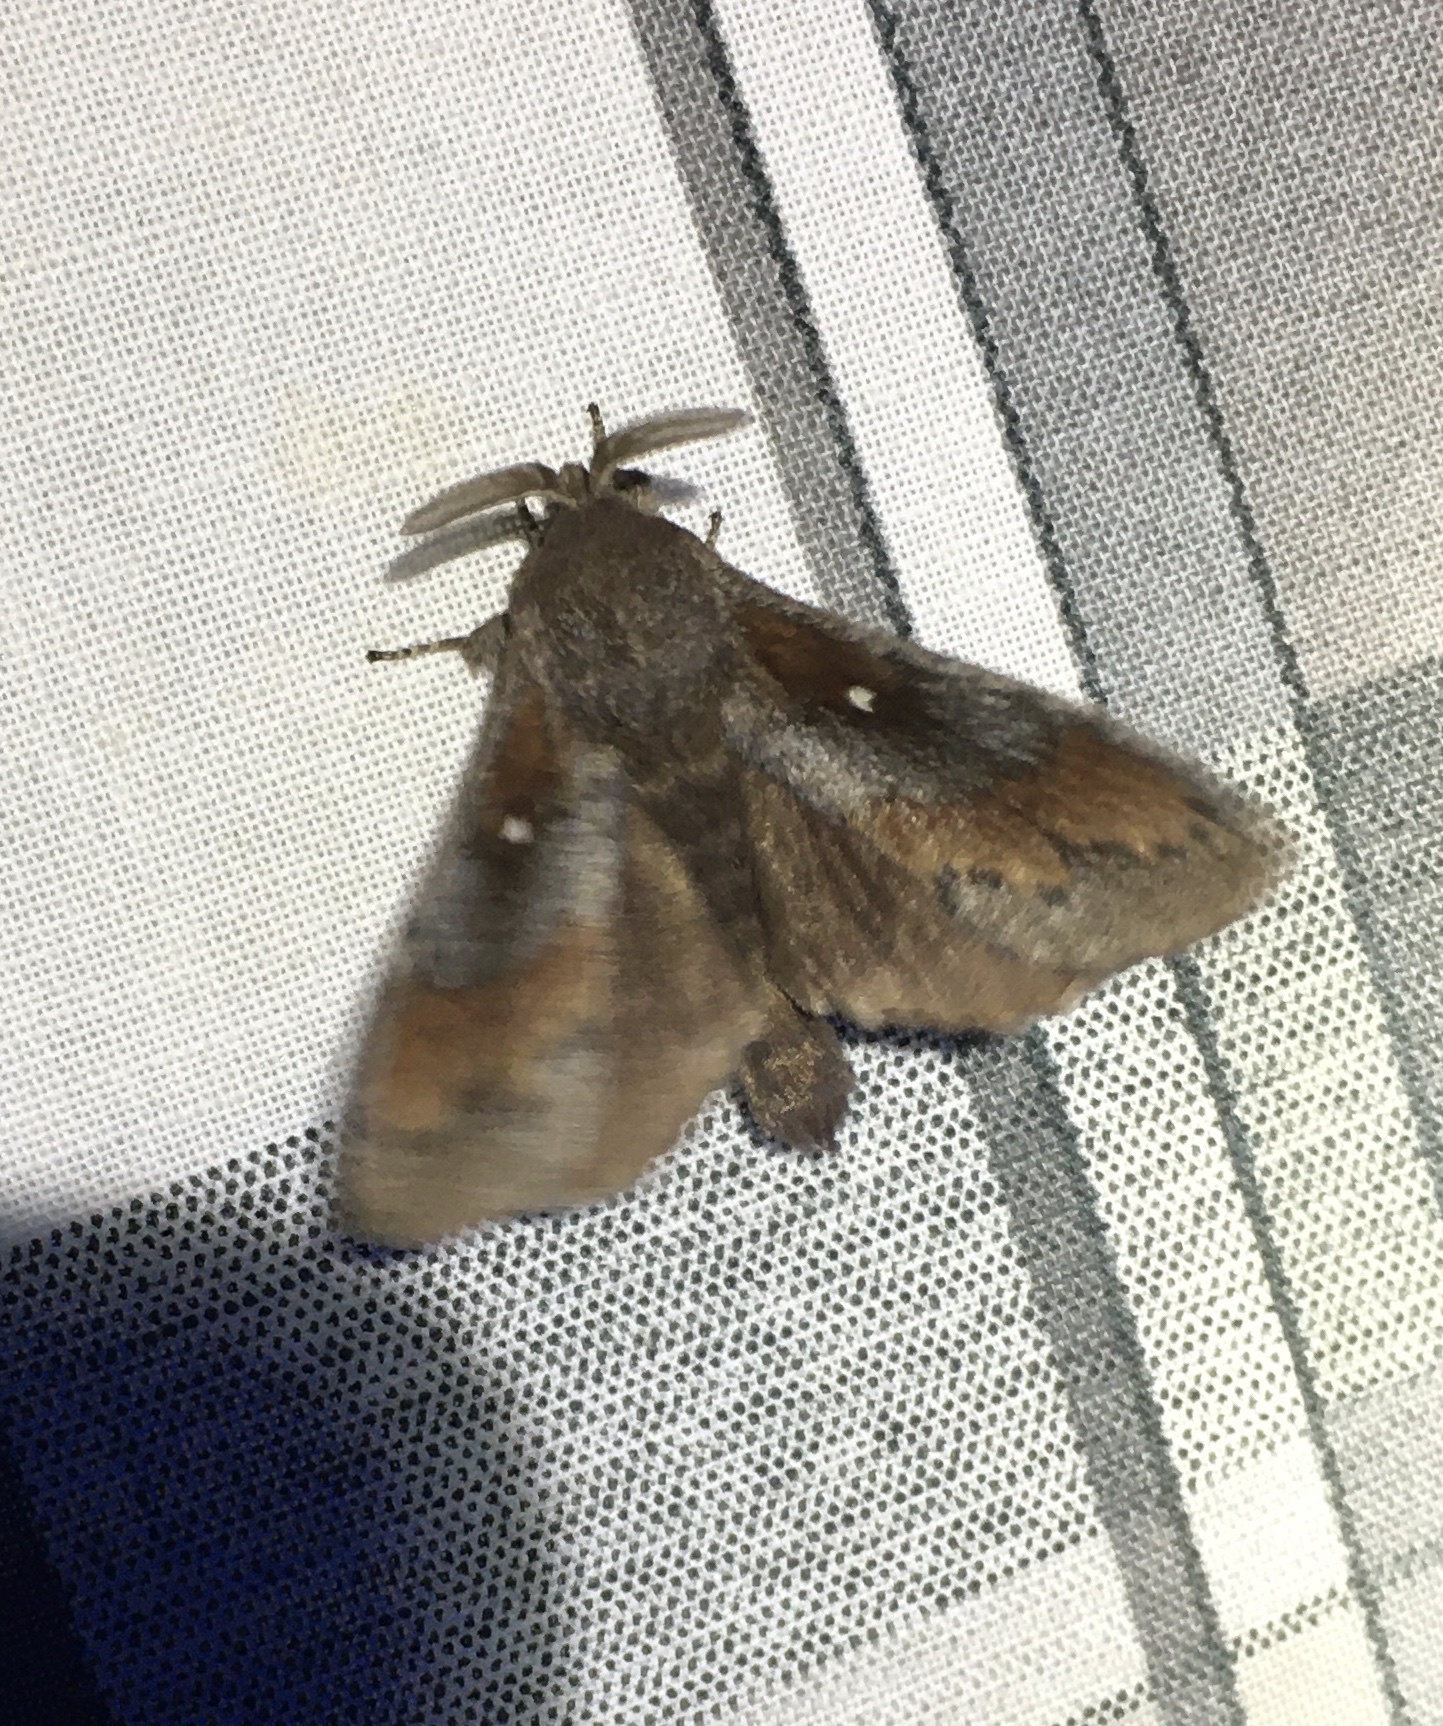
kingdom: Animalia
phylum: Arthropoda
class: Insecta
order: Lepidoptera
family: Lasiocampidae
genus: Dendrolimus
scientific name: Dendrolimus pini
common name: Pine-tree lappet
